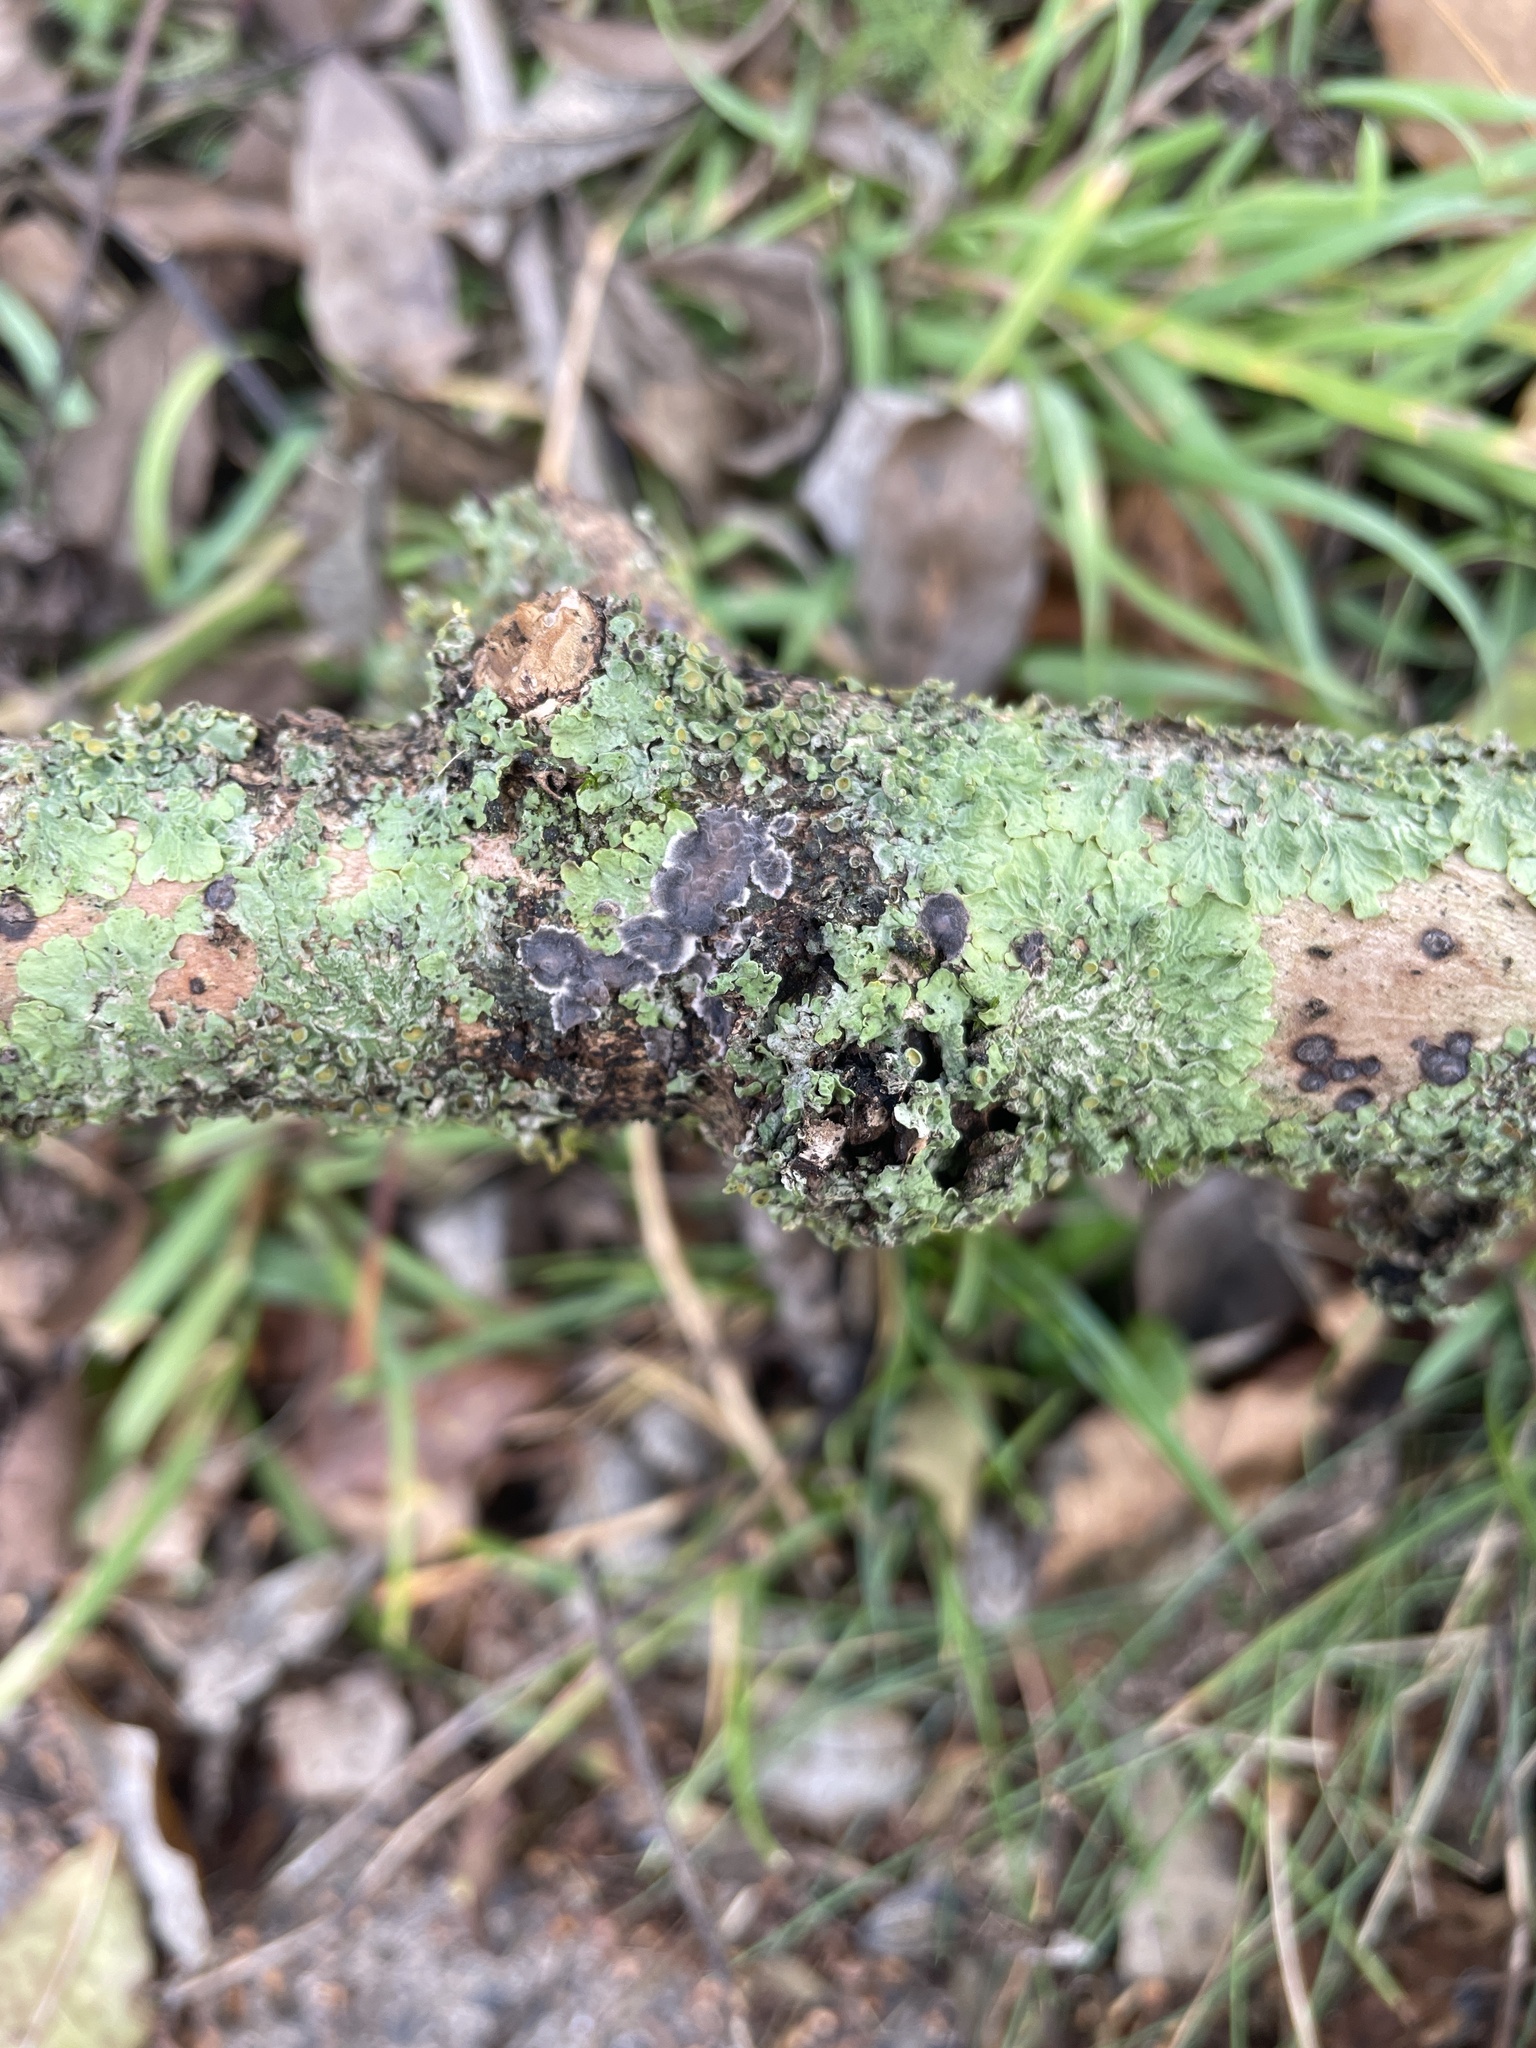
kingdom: Fungi
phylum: Basidiomycota
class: Agaricomycetes
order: Russulales
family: Peniophoraceae
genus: Peniophora
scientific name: Peniophora
